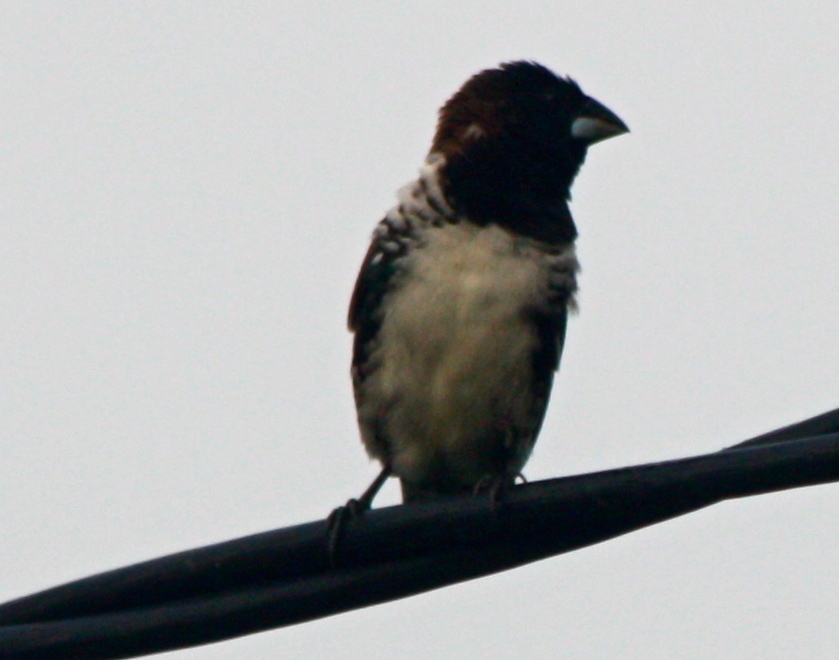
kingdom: Animalia
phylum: Chordata
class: Aves
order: Passeriformes
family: Estrildidae
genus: Lonchura
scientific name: Lonchura cucullata
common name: Bronze mannikin
